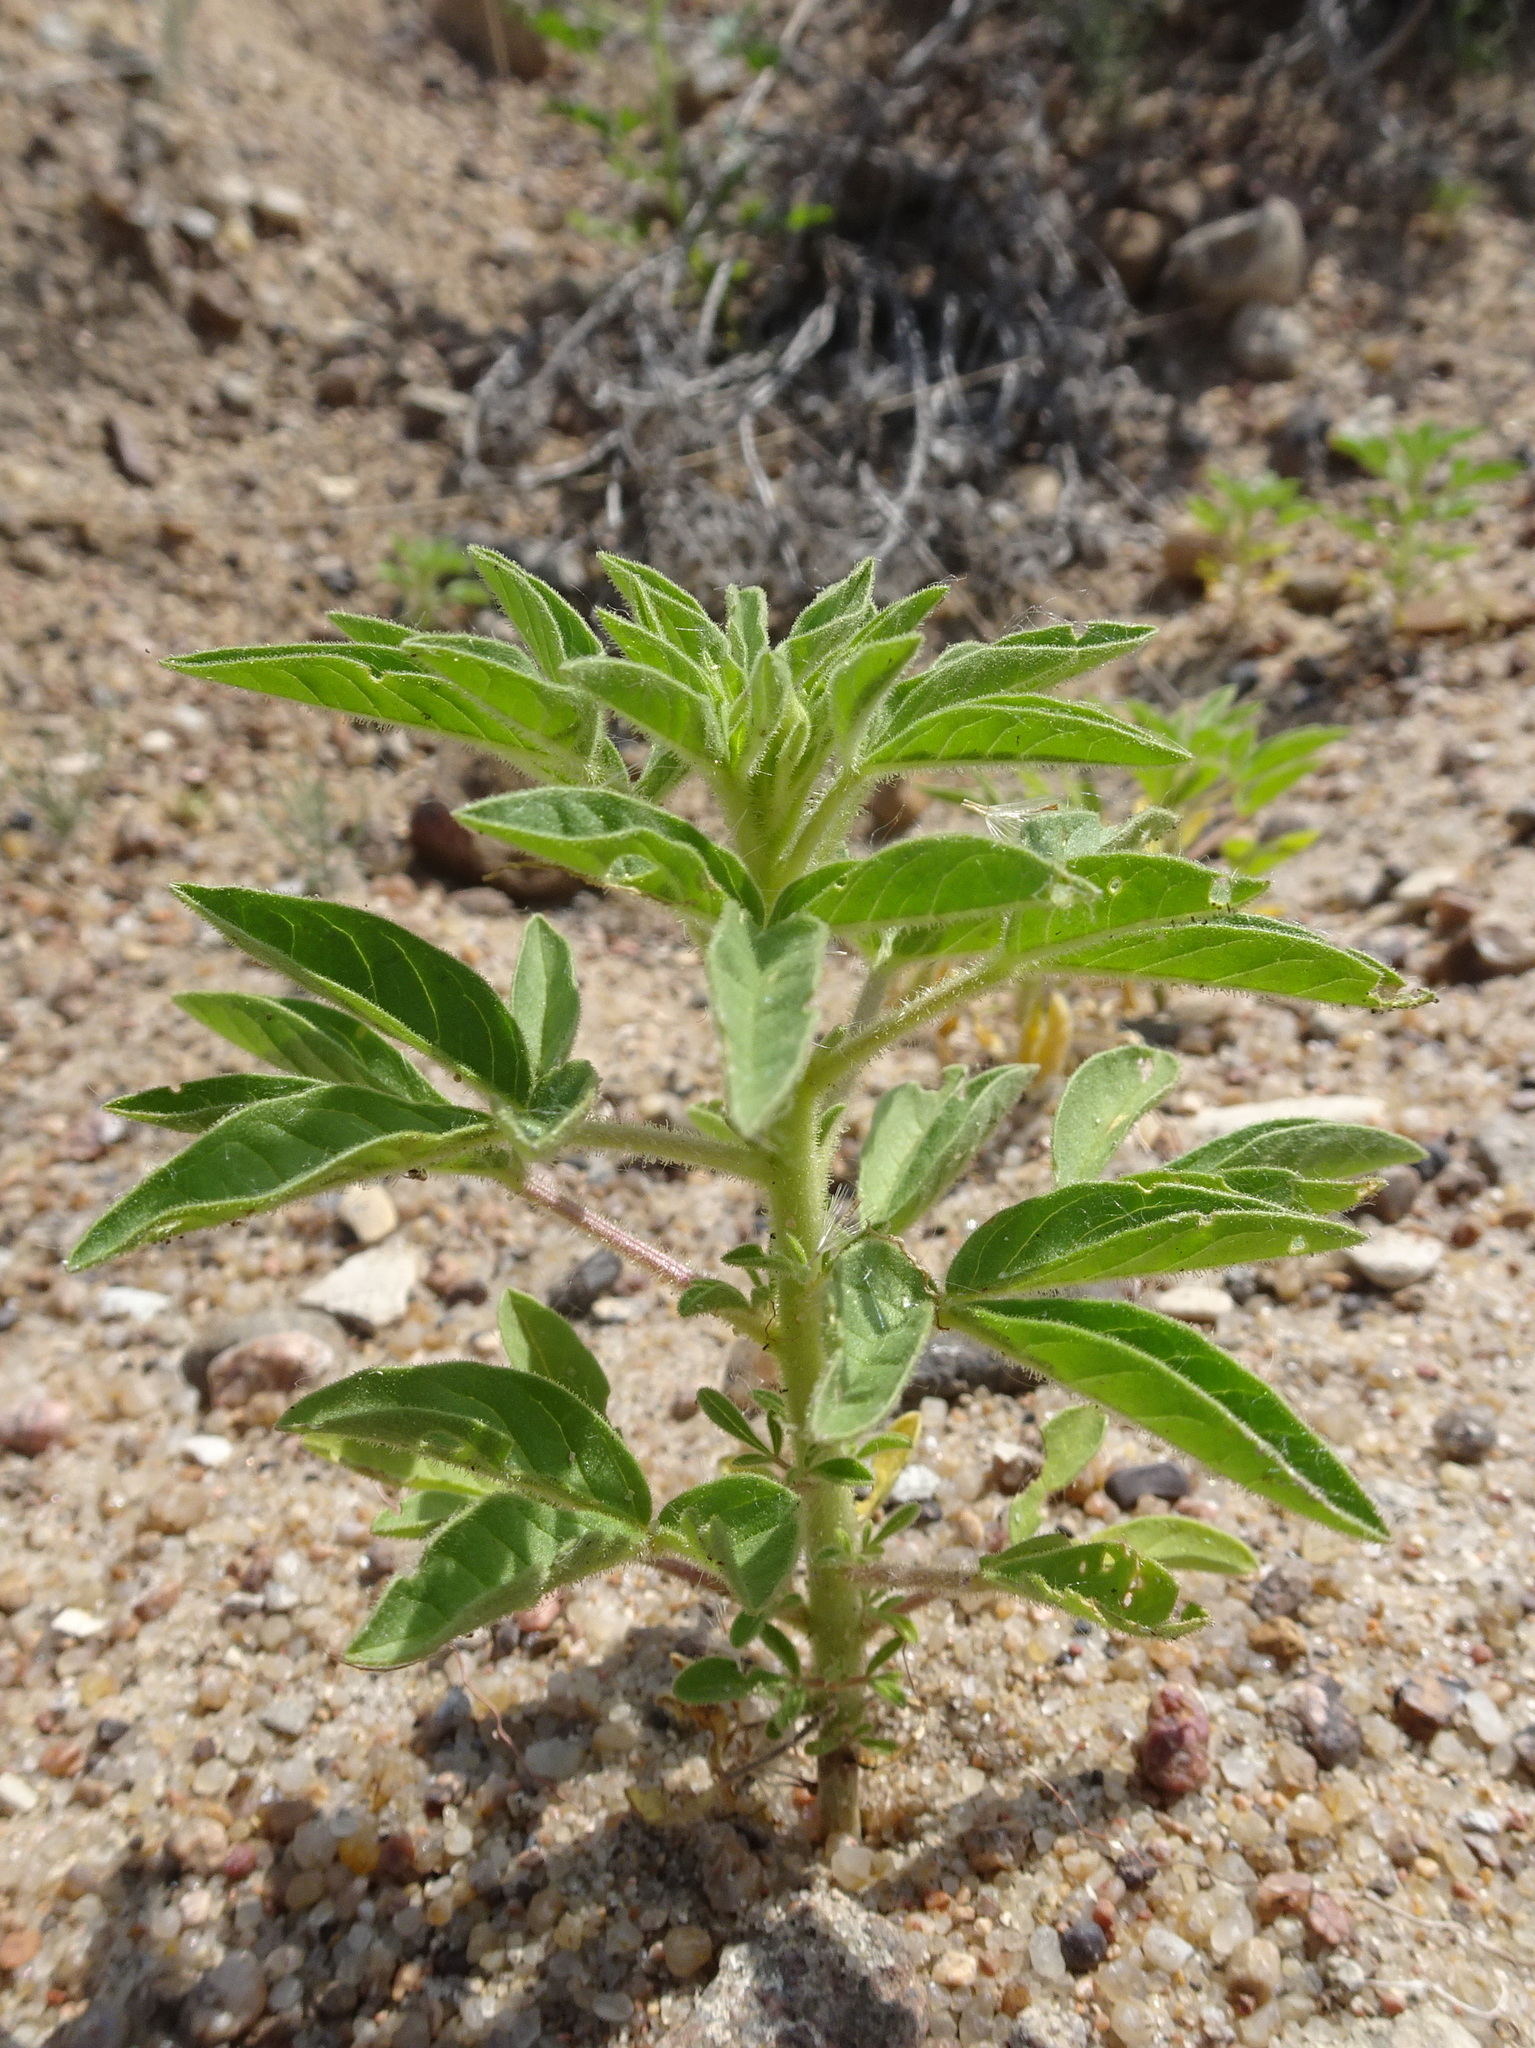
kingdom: Plantae
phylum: Tracheophyta
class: Magnoliopsida
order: Brassicales
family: Cleomaceae
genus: Polanisia
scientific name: Polanisia dodecandra
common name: Clammyweed
